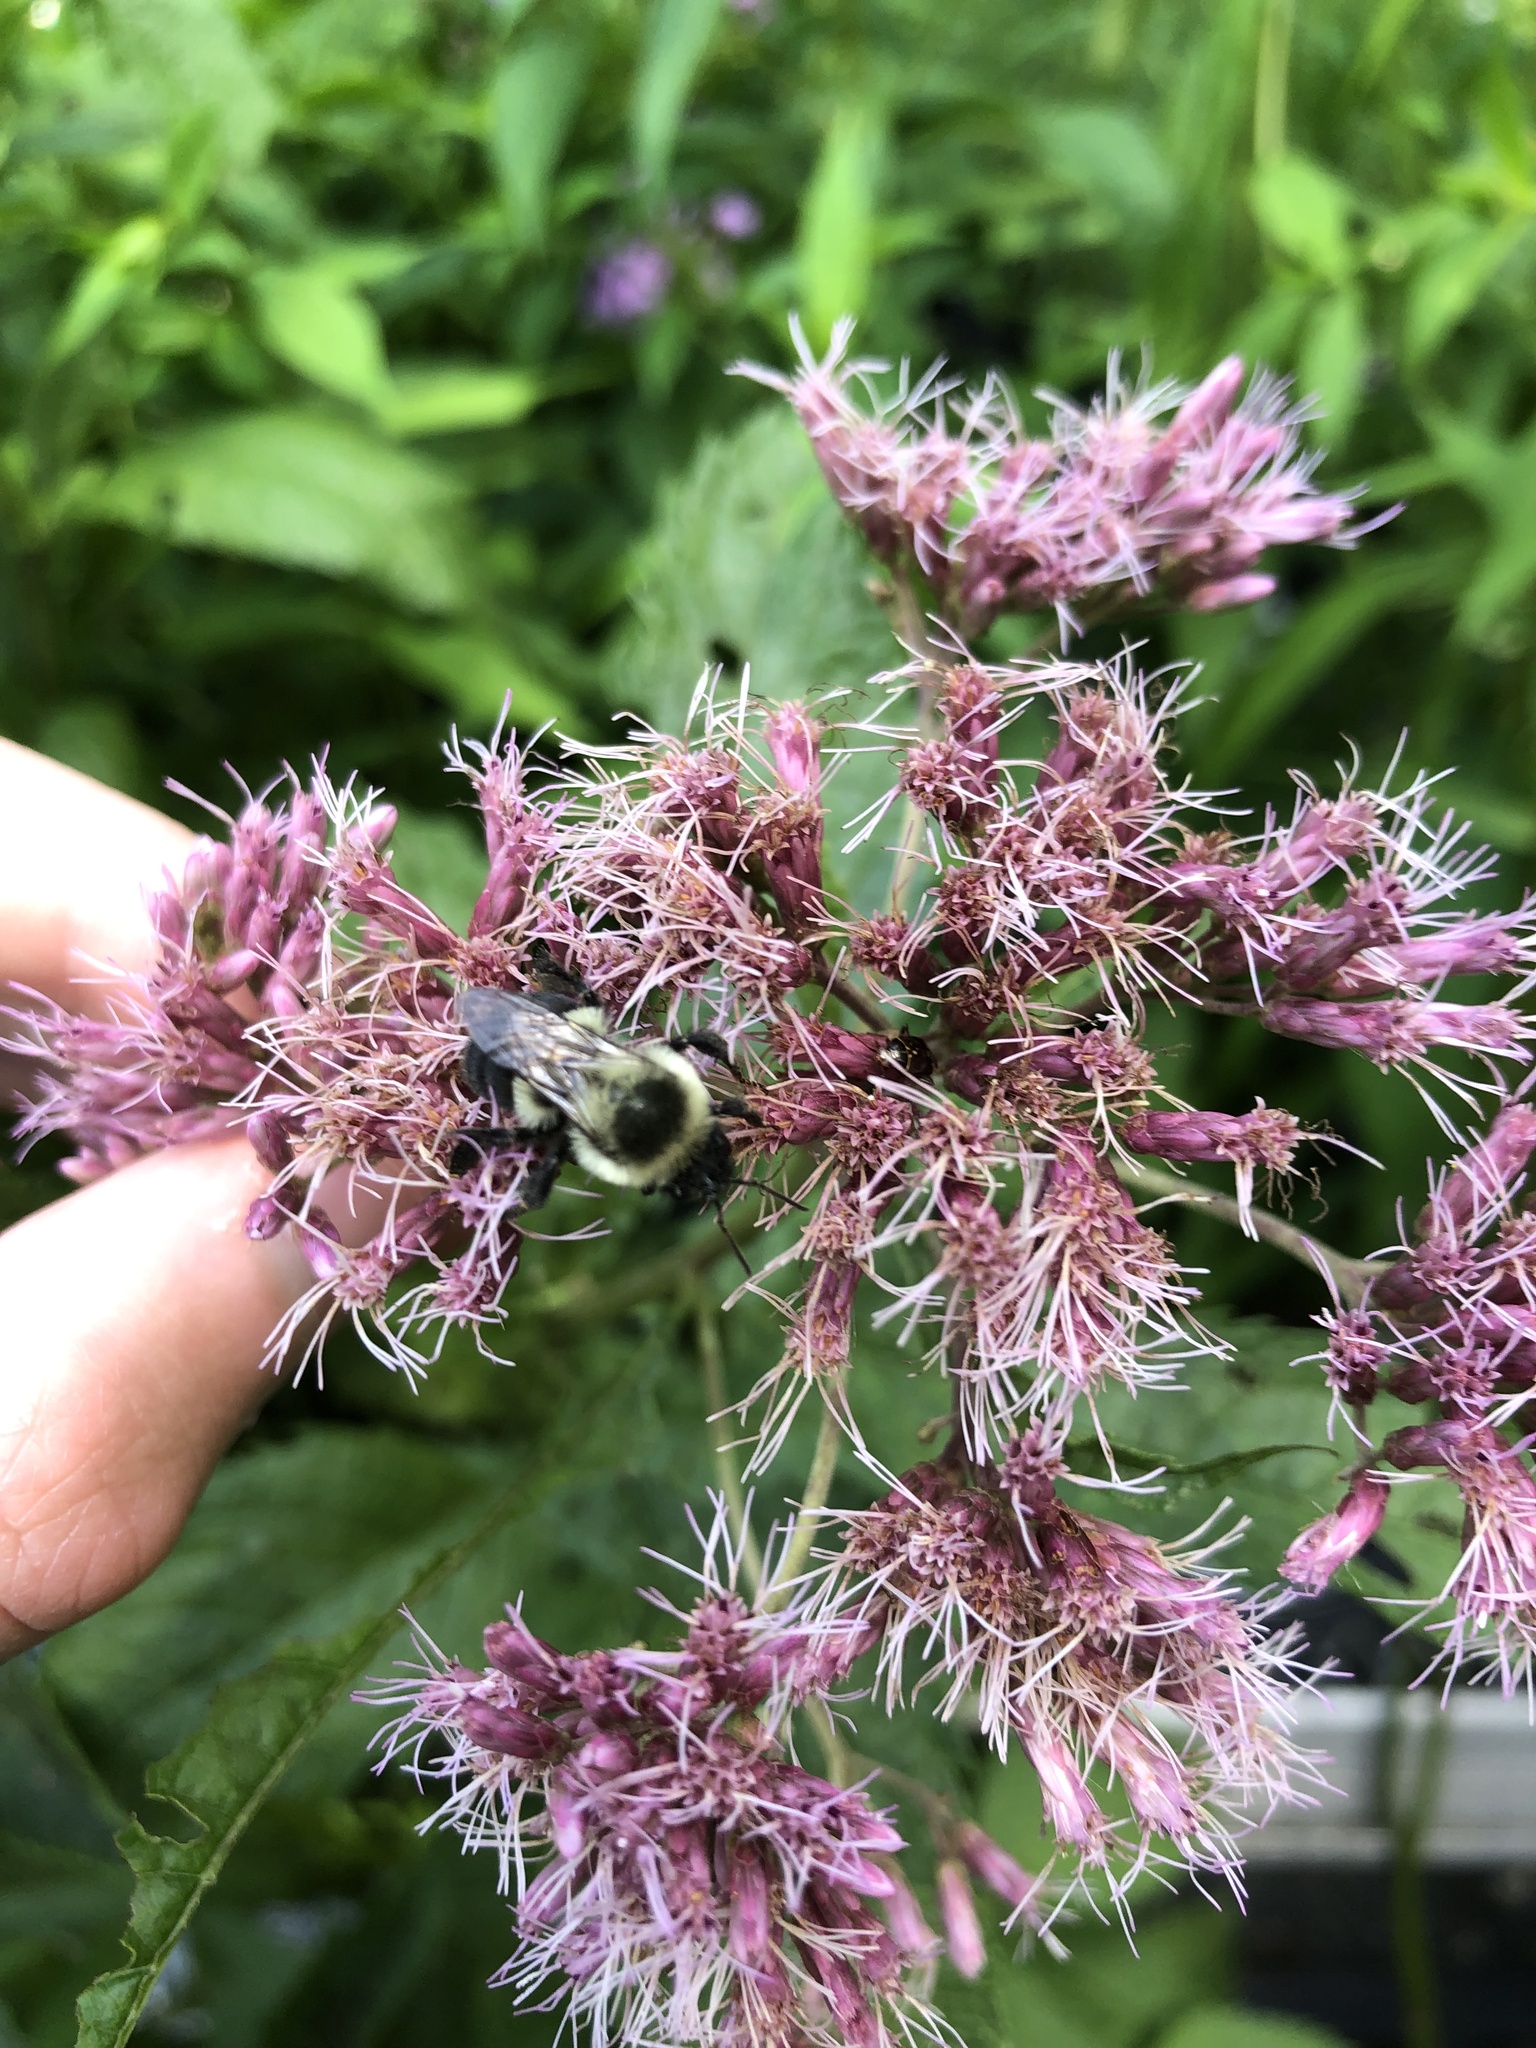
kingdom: Animalia
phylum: Arthropoda
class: Insecta
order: Hymenoptera
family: Apidae
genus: Bombus
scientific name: Bombus impatiens
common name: Common eastern bumble bee
